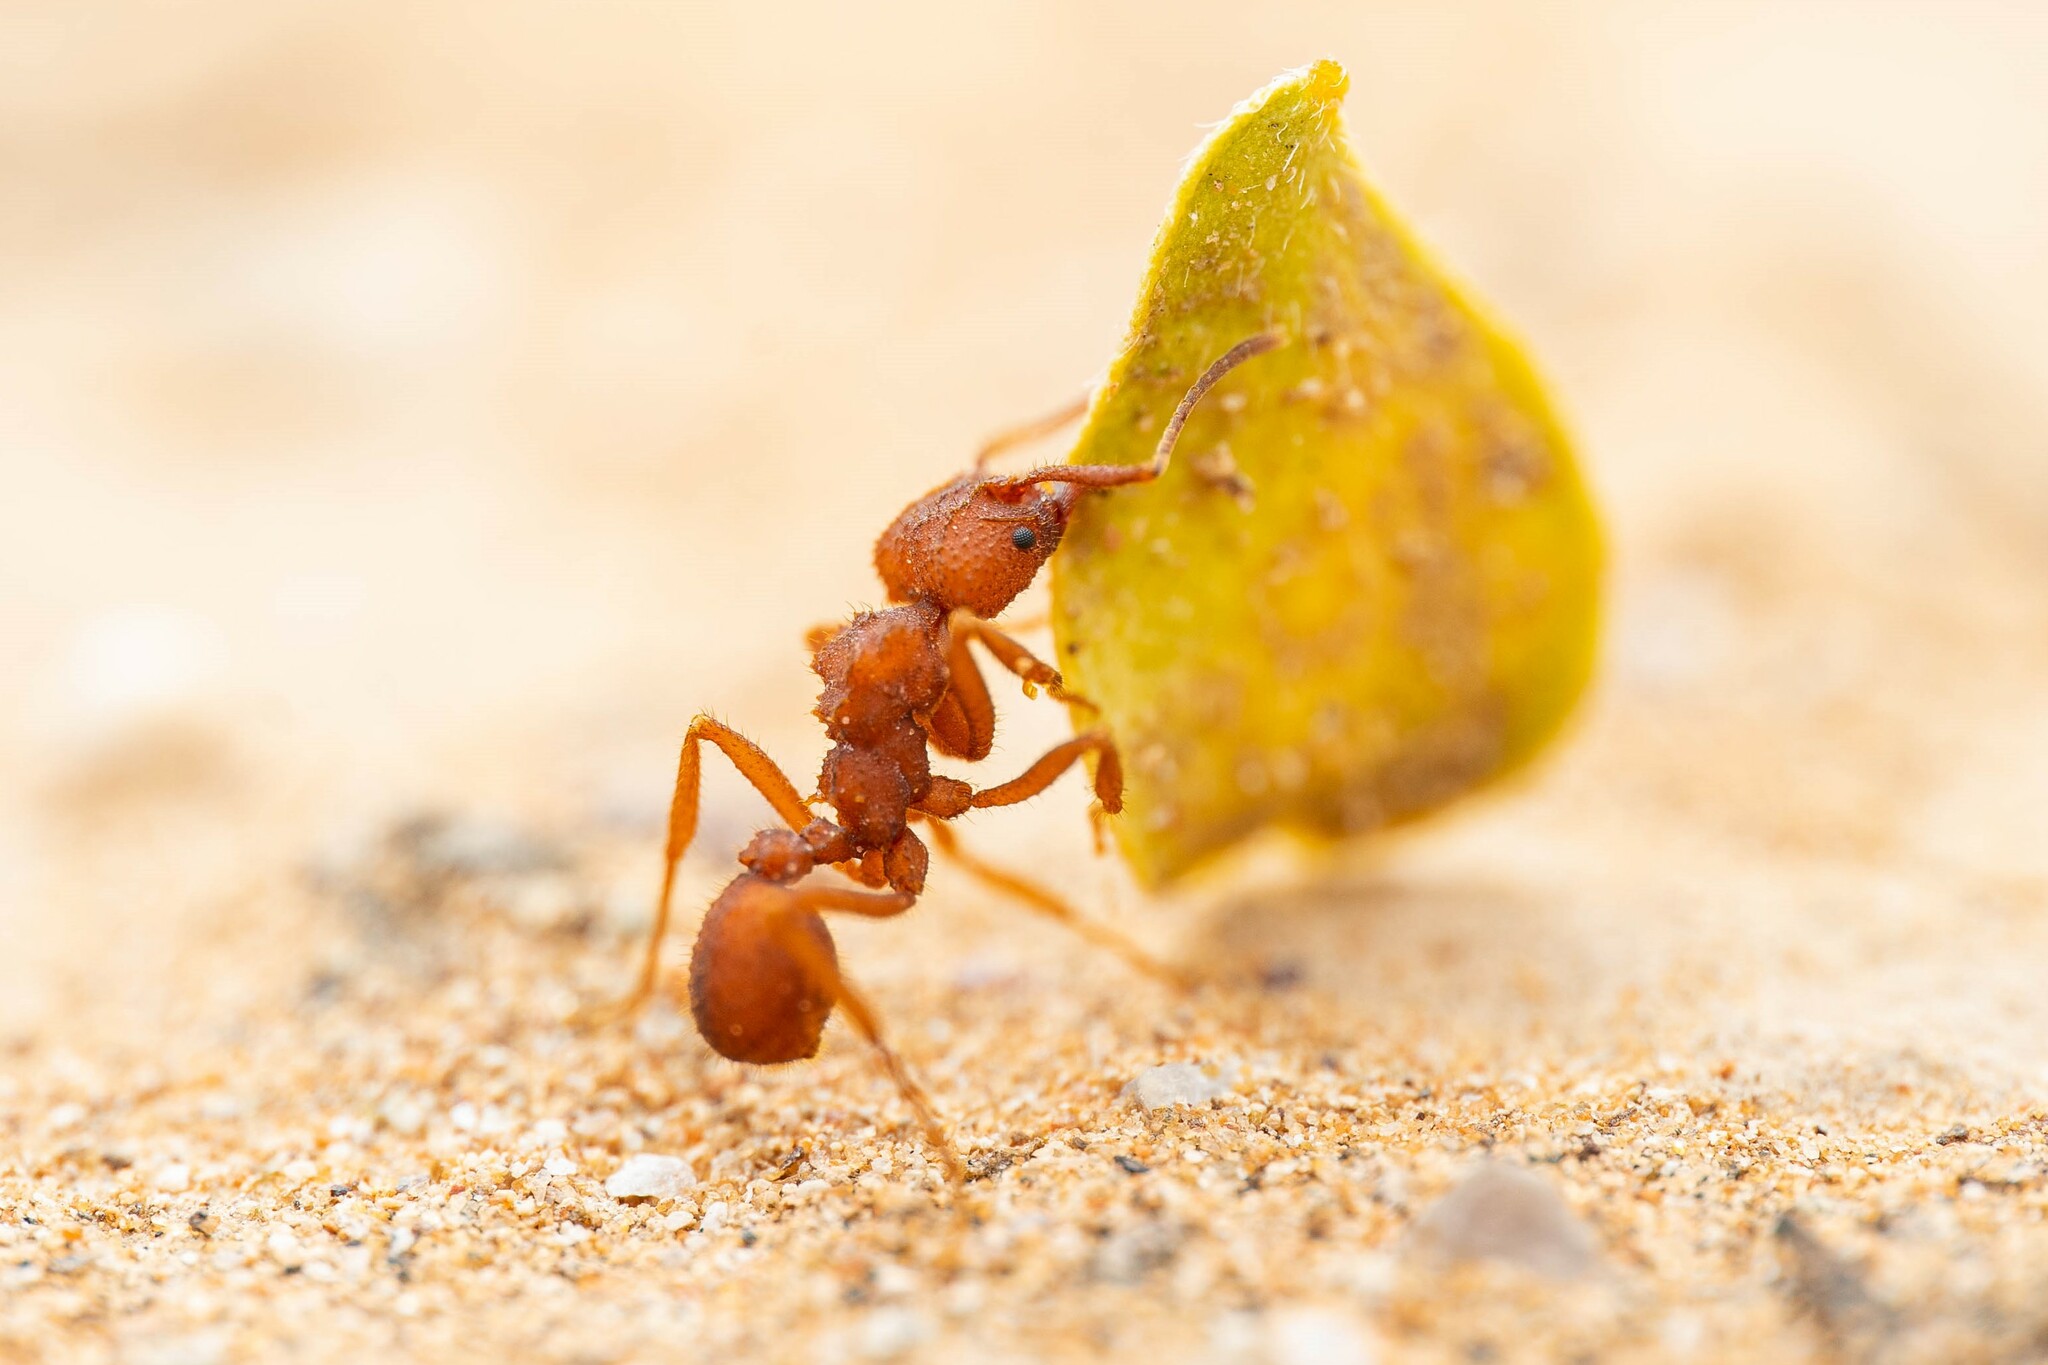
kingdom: Animalia
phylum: Arthropoda
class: Insecta
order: Hymenoptera
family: Formicidae
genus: Trachymyrmex
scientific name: Trachymyrmex desertorum
